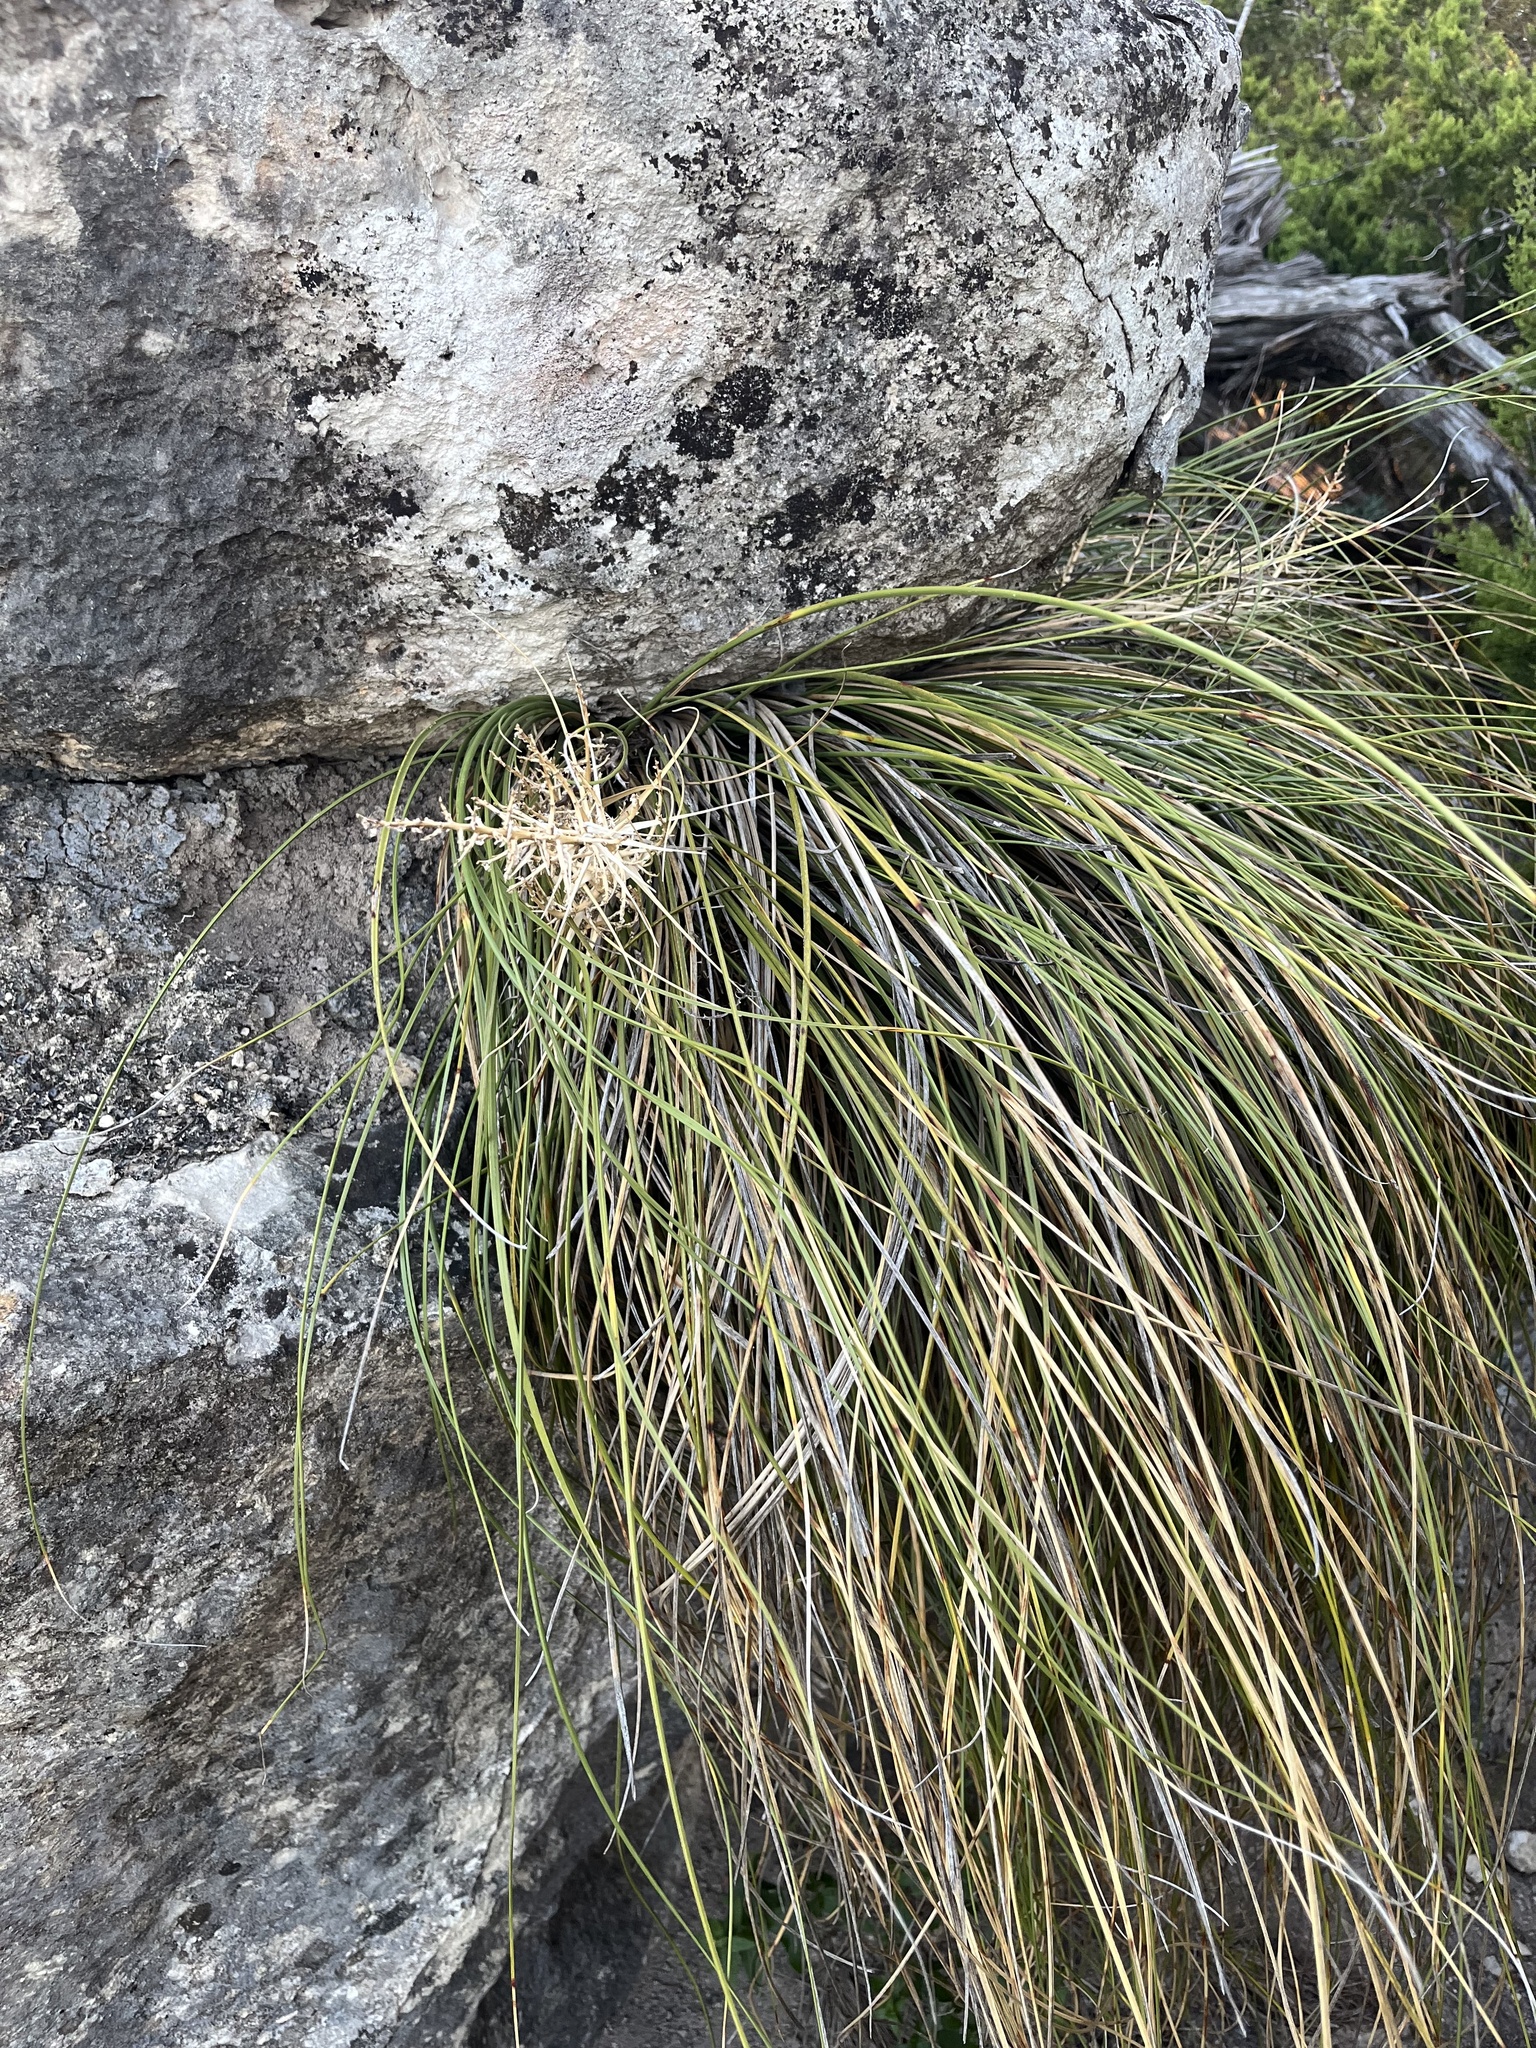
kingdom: Plantae
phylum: Tracheophyta
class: Liliopsida
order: Asparagales
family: Asparagaceae
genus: Nolina
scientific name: Nolina texana
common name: Texas sacahuiste
